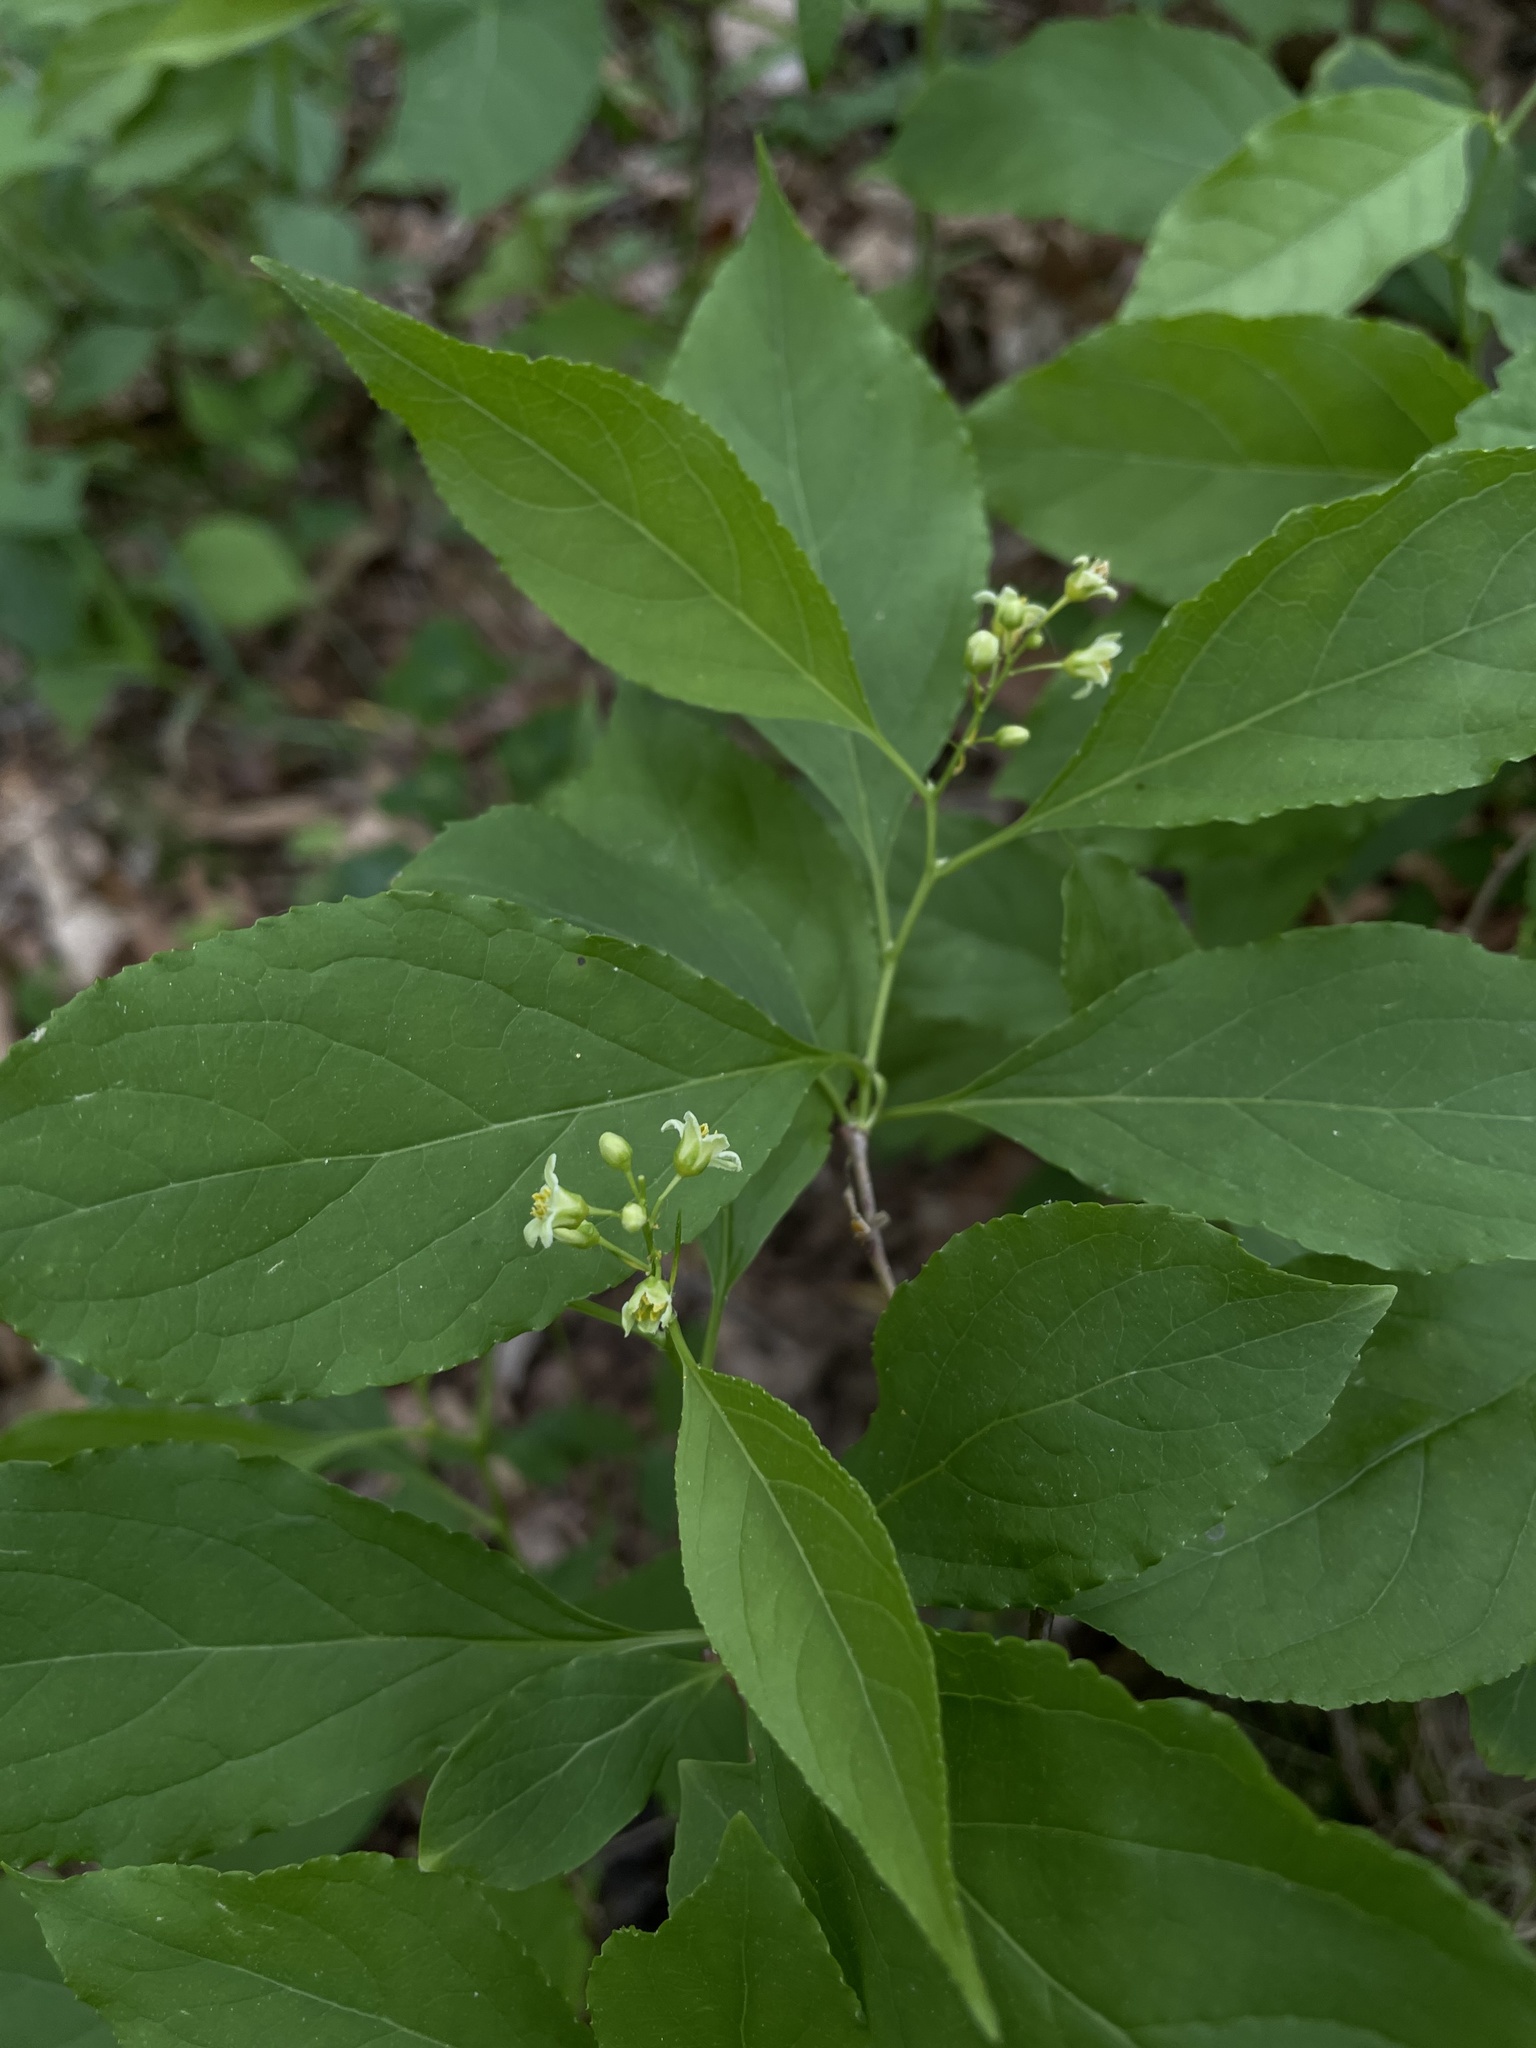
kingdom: Plantae
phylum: Tracheophyta
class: Magnoliopsida
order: Celastrales
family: Celastraceae
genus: Celastrus
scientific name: Celastrus scandens
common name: American bittersweet
